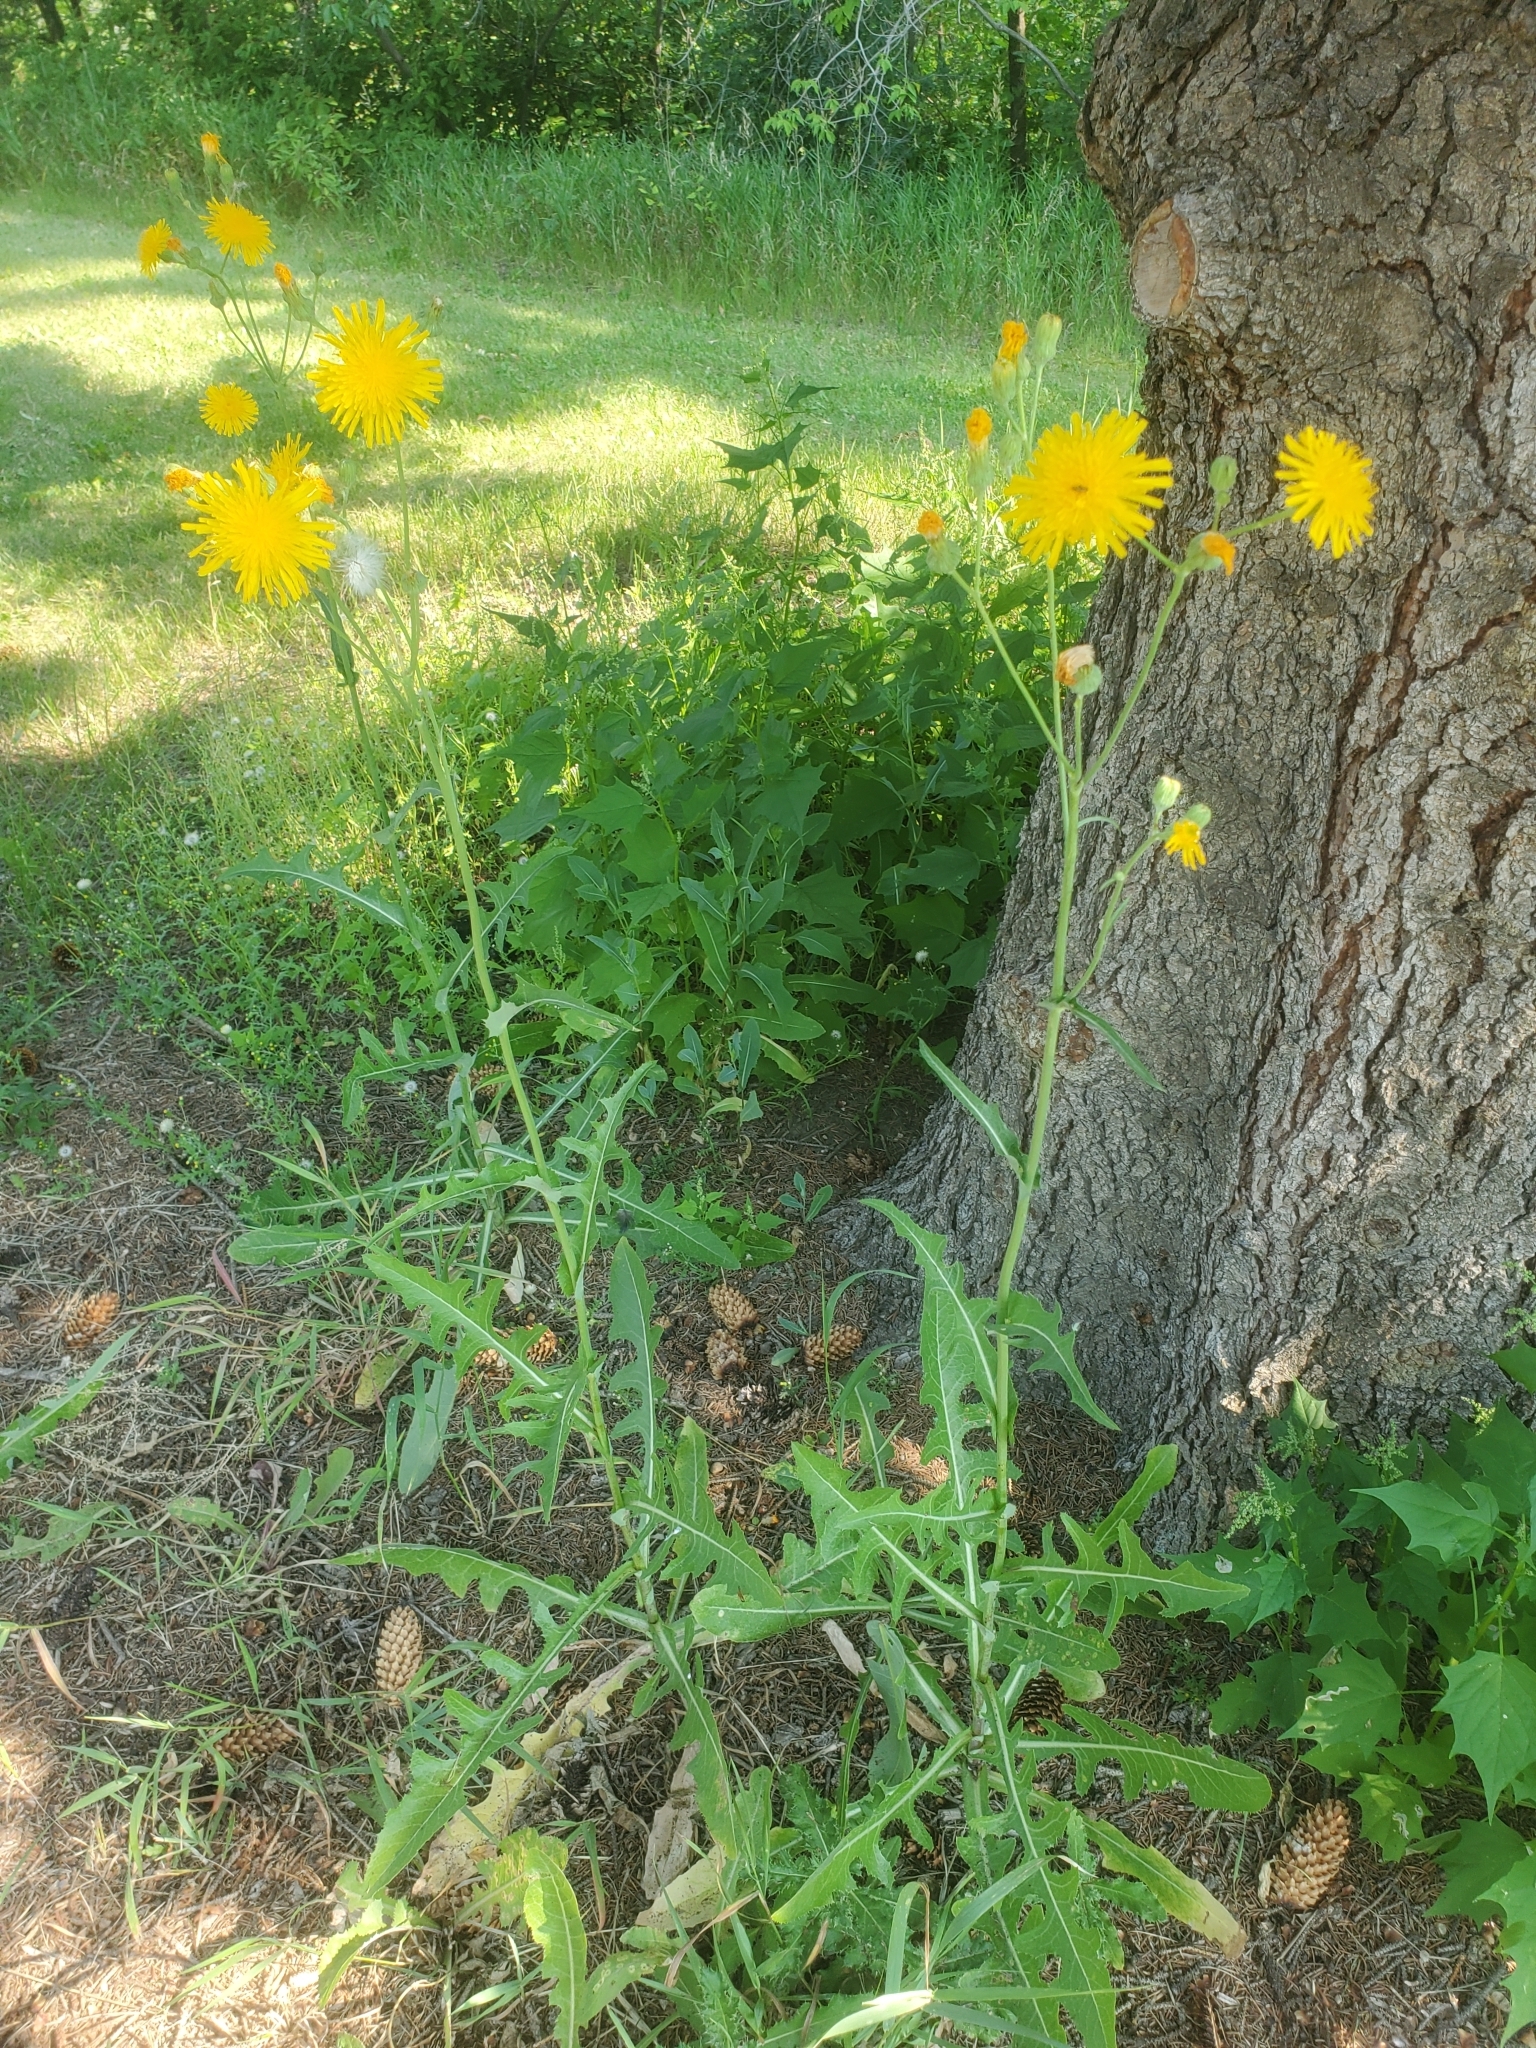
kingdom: Plantae
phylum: Tracheophyta
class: Magnoliopsida
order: Asterales
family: Asteraceae
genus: Sonchus
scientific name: Sonchus arvensis
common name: Perennial sow-thistle
